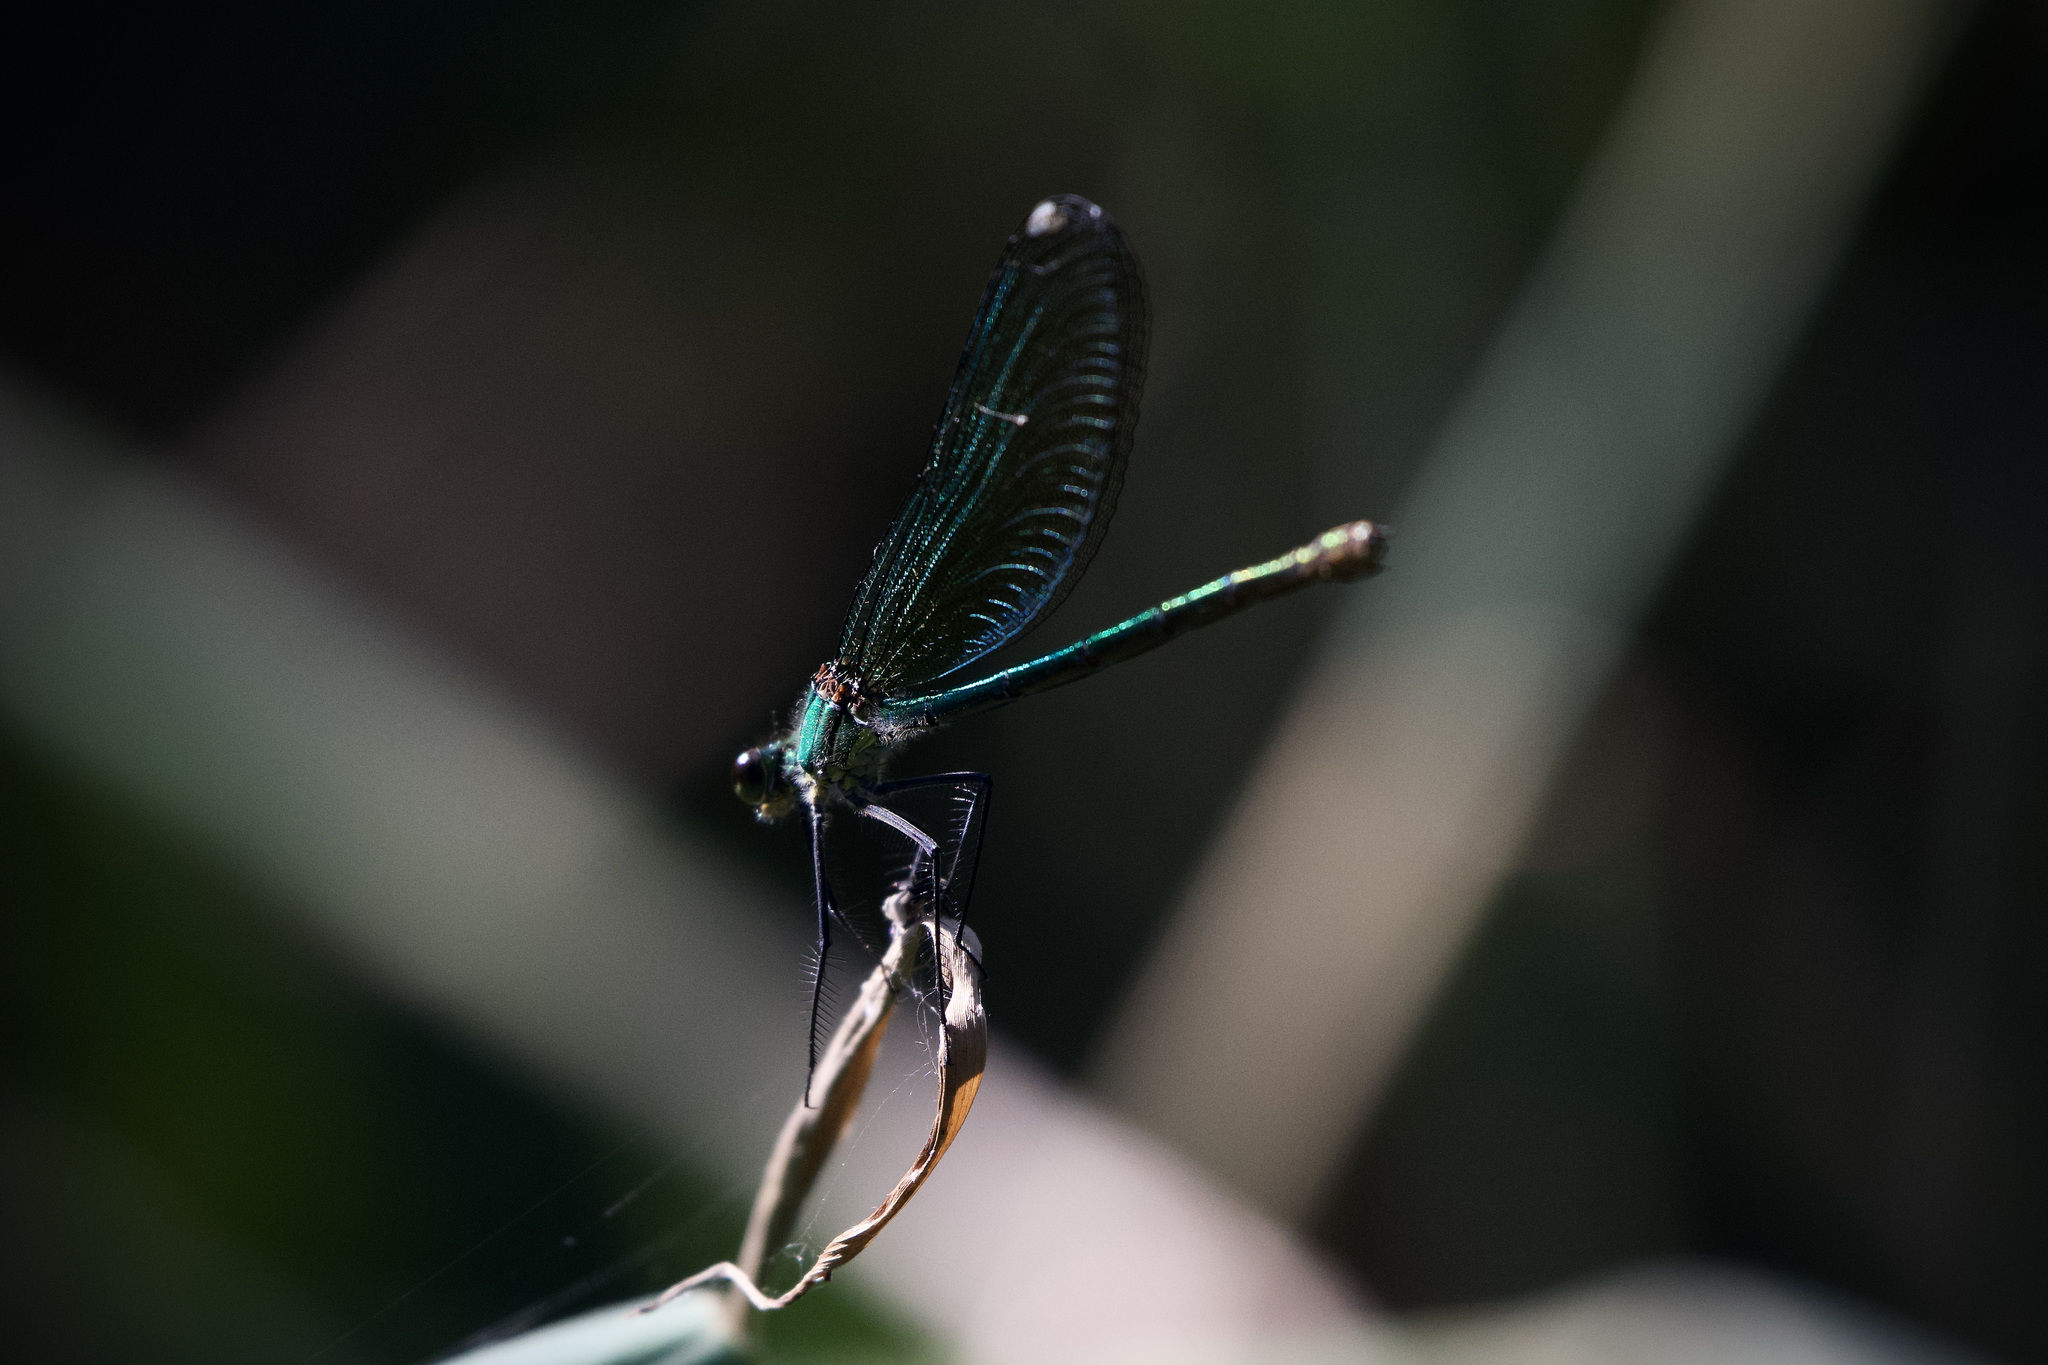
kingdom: Animalia
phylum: Arthropoda
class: Insecta
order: Odonata
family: Calopterygidae
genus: Calopteryx
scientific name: Calopteryx virgo
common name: Beautiful demoiselle
